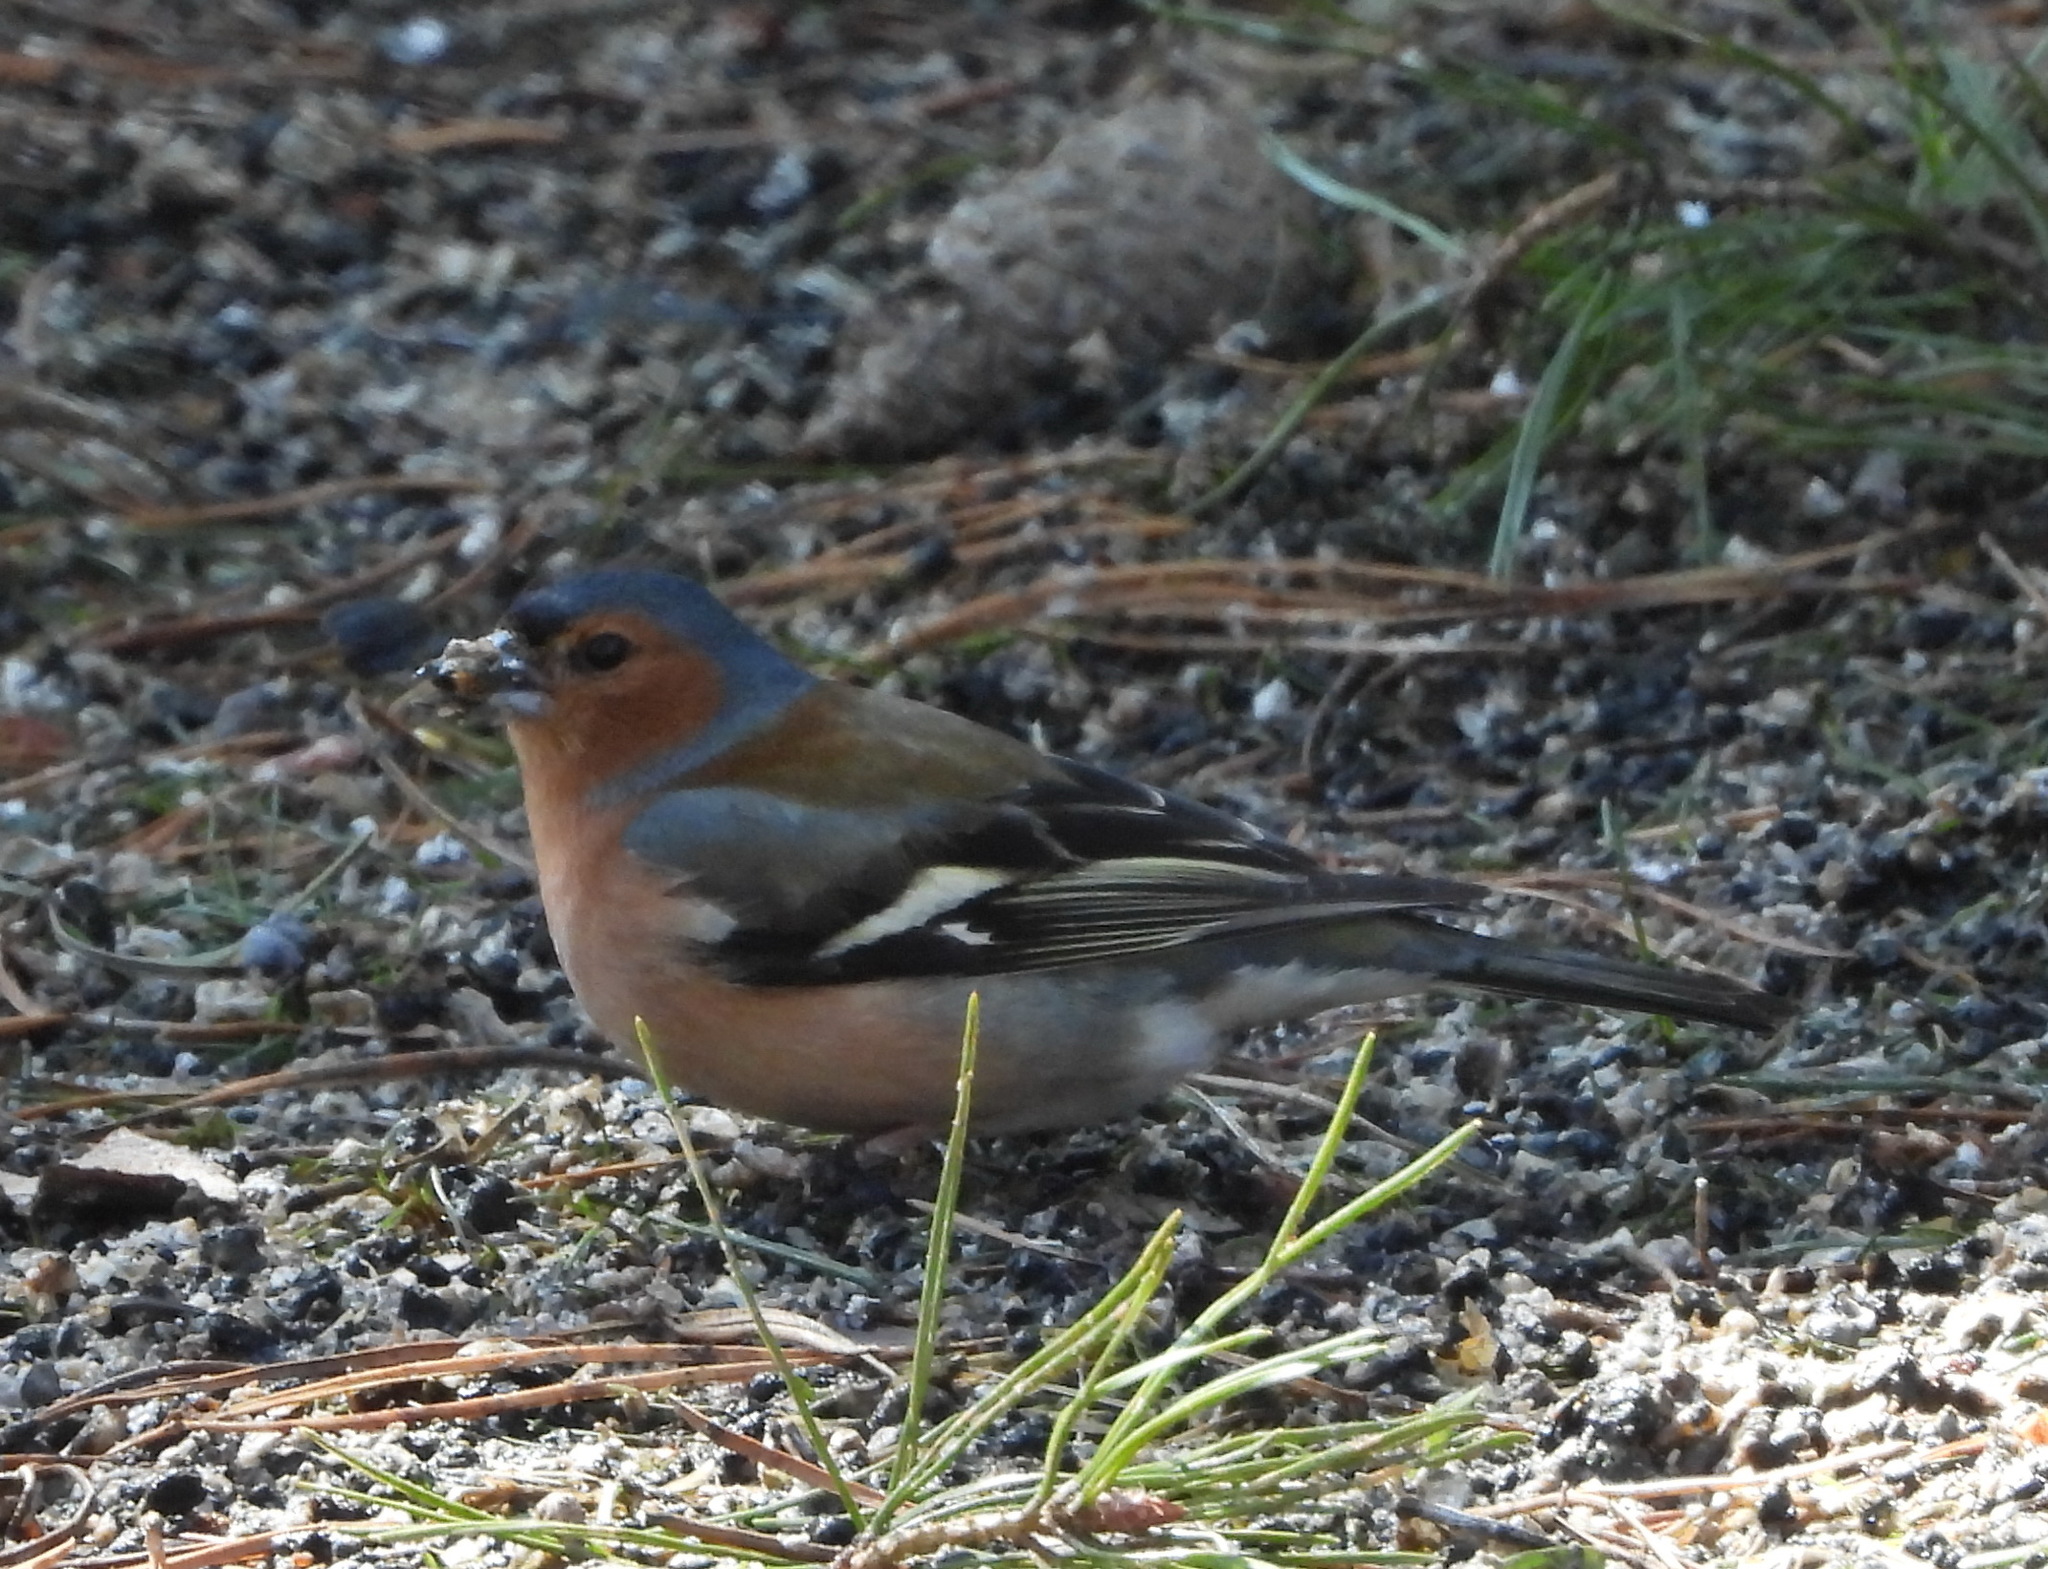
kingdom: Animalia
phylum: Chordata
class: Aves
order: Passeriformes
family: Fringillidae
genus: Fringilla
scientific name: Fringilla coelebs
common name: Common chaffinch
